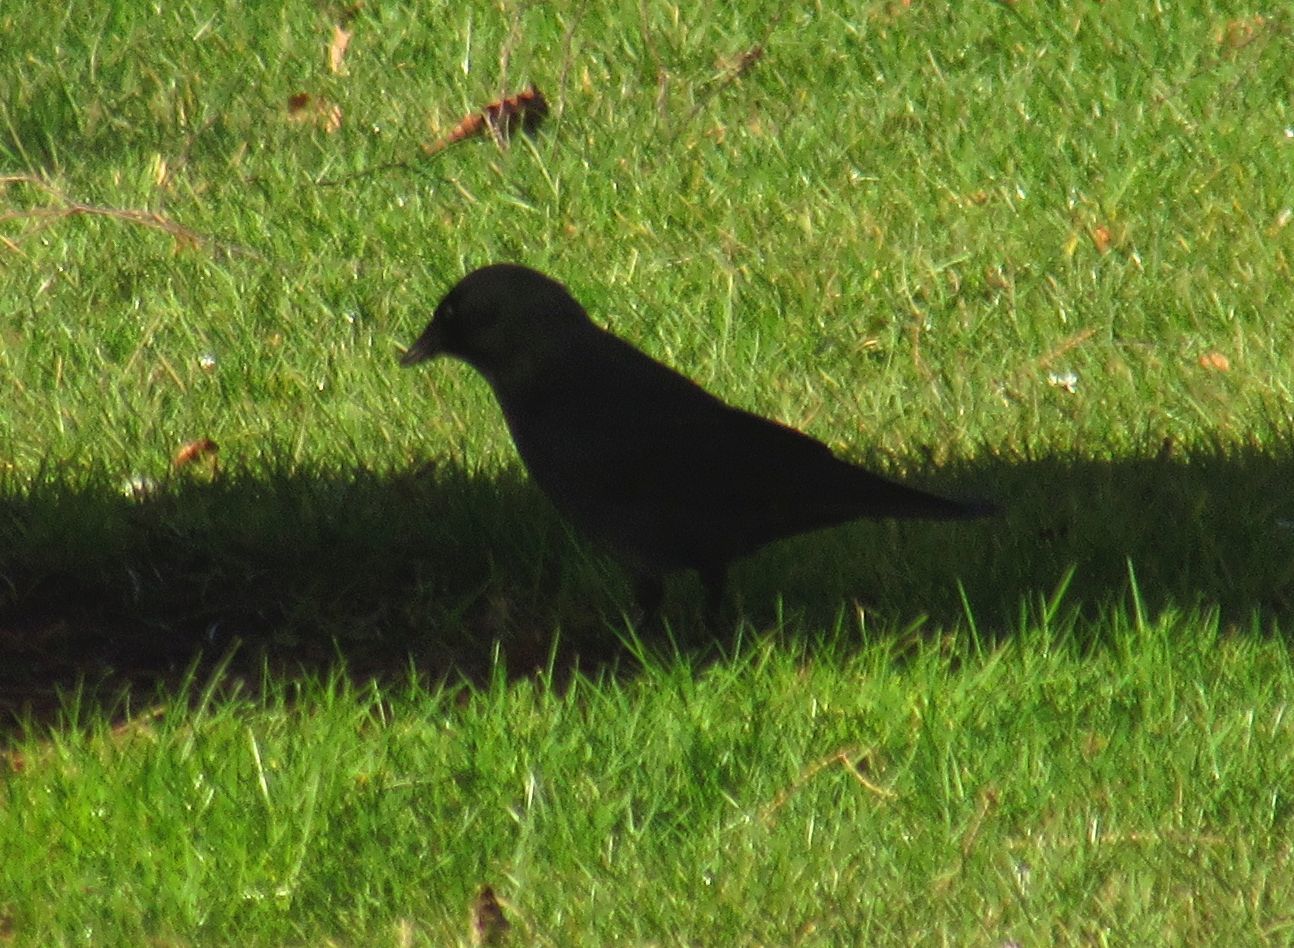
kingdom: Animalia
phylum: Chordata
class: Aves
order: Passeriformes
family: Corvidae
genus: Coloeus
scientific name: Coloeus monedula
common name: Western jackdaw
